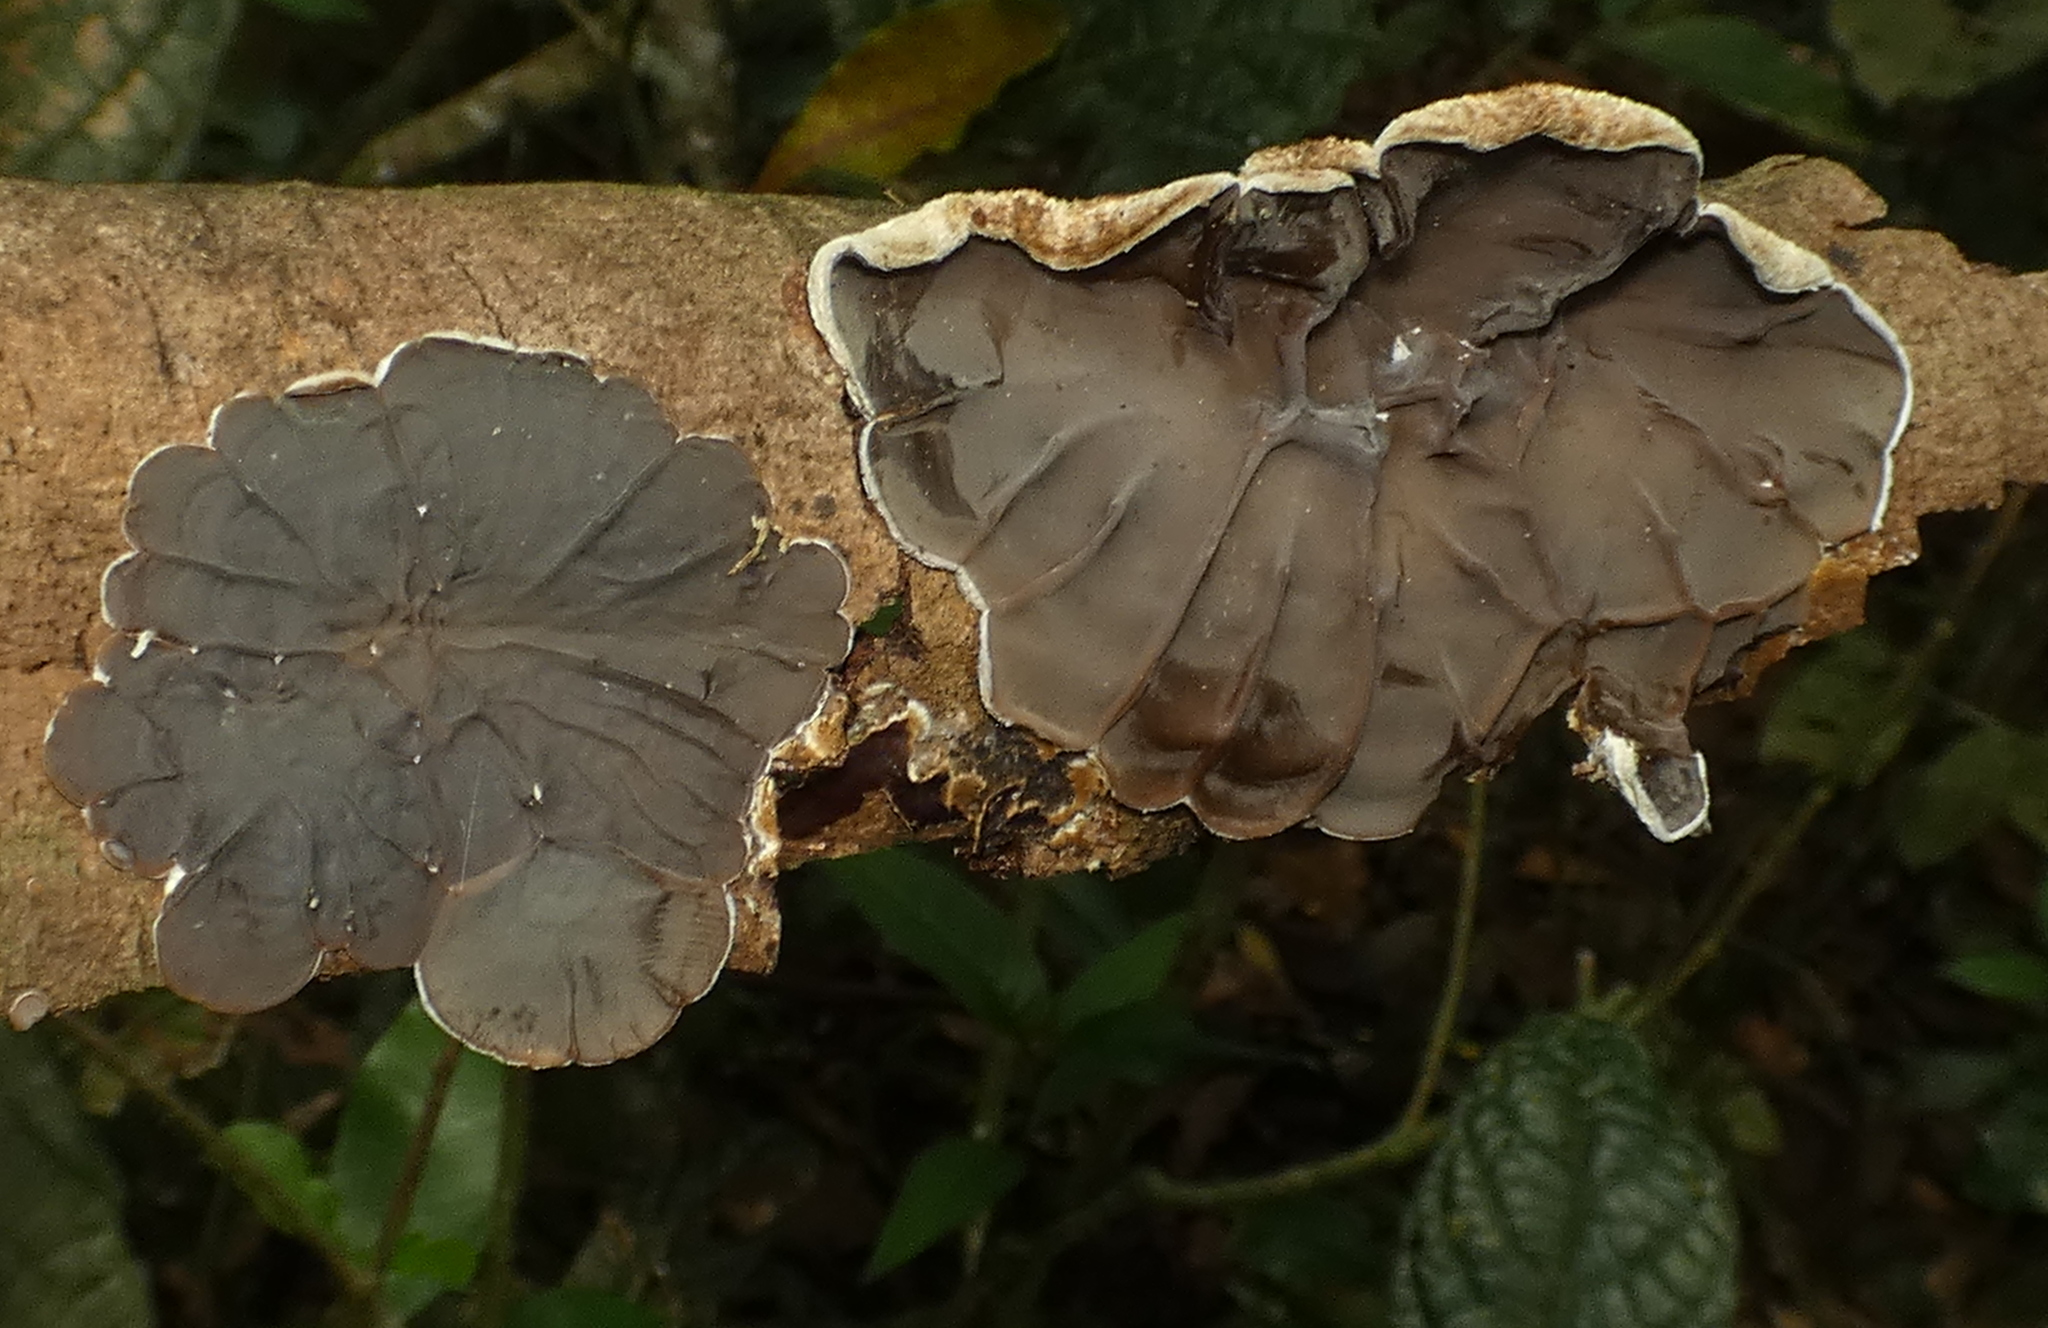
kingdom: Fungi
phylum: Basidiomycota
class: Agaricomycetes
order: Auriculariales
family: Auriculariaceae
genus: Auricularia
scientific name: Auricularia brasiliana
